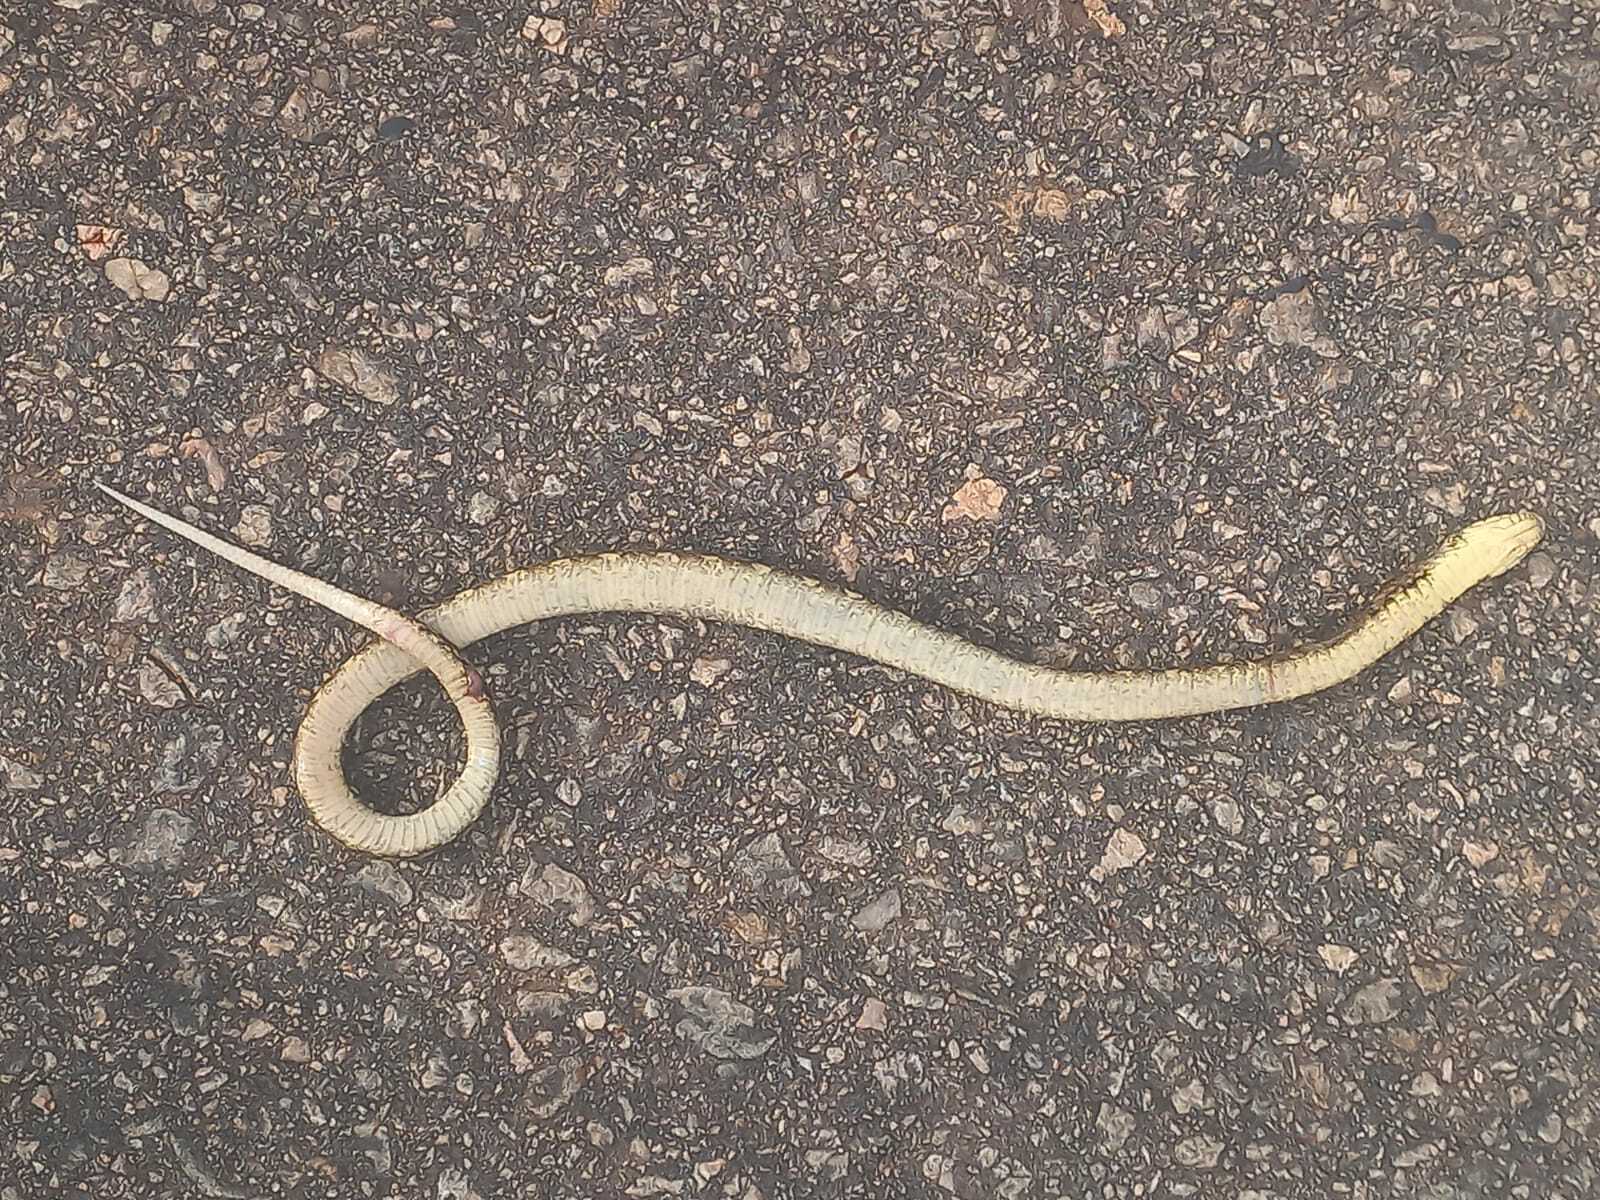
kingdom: Animalia
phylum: Chordata
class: Squamata
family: Colubridae
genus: Xenodon
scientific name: Xenodon rabdocephalus
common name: False fer-de-lance
